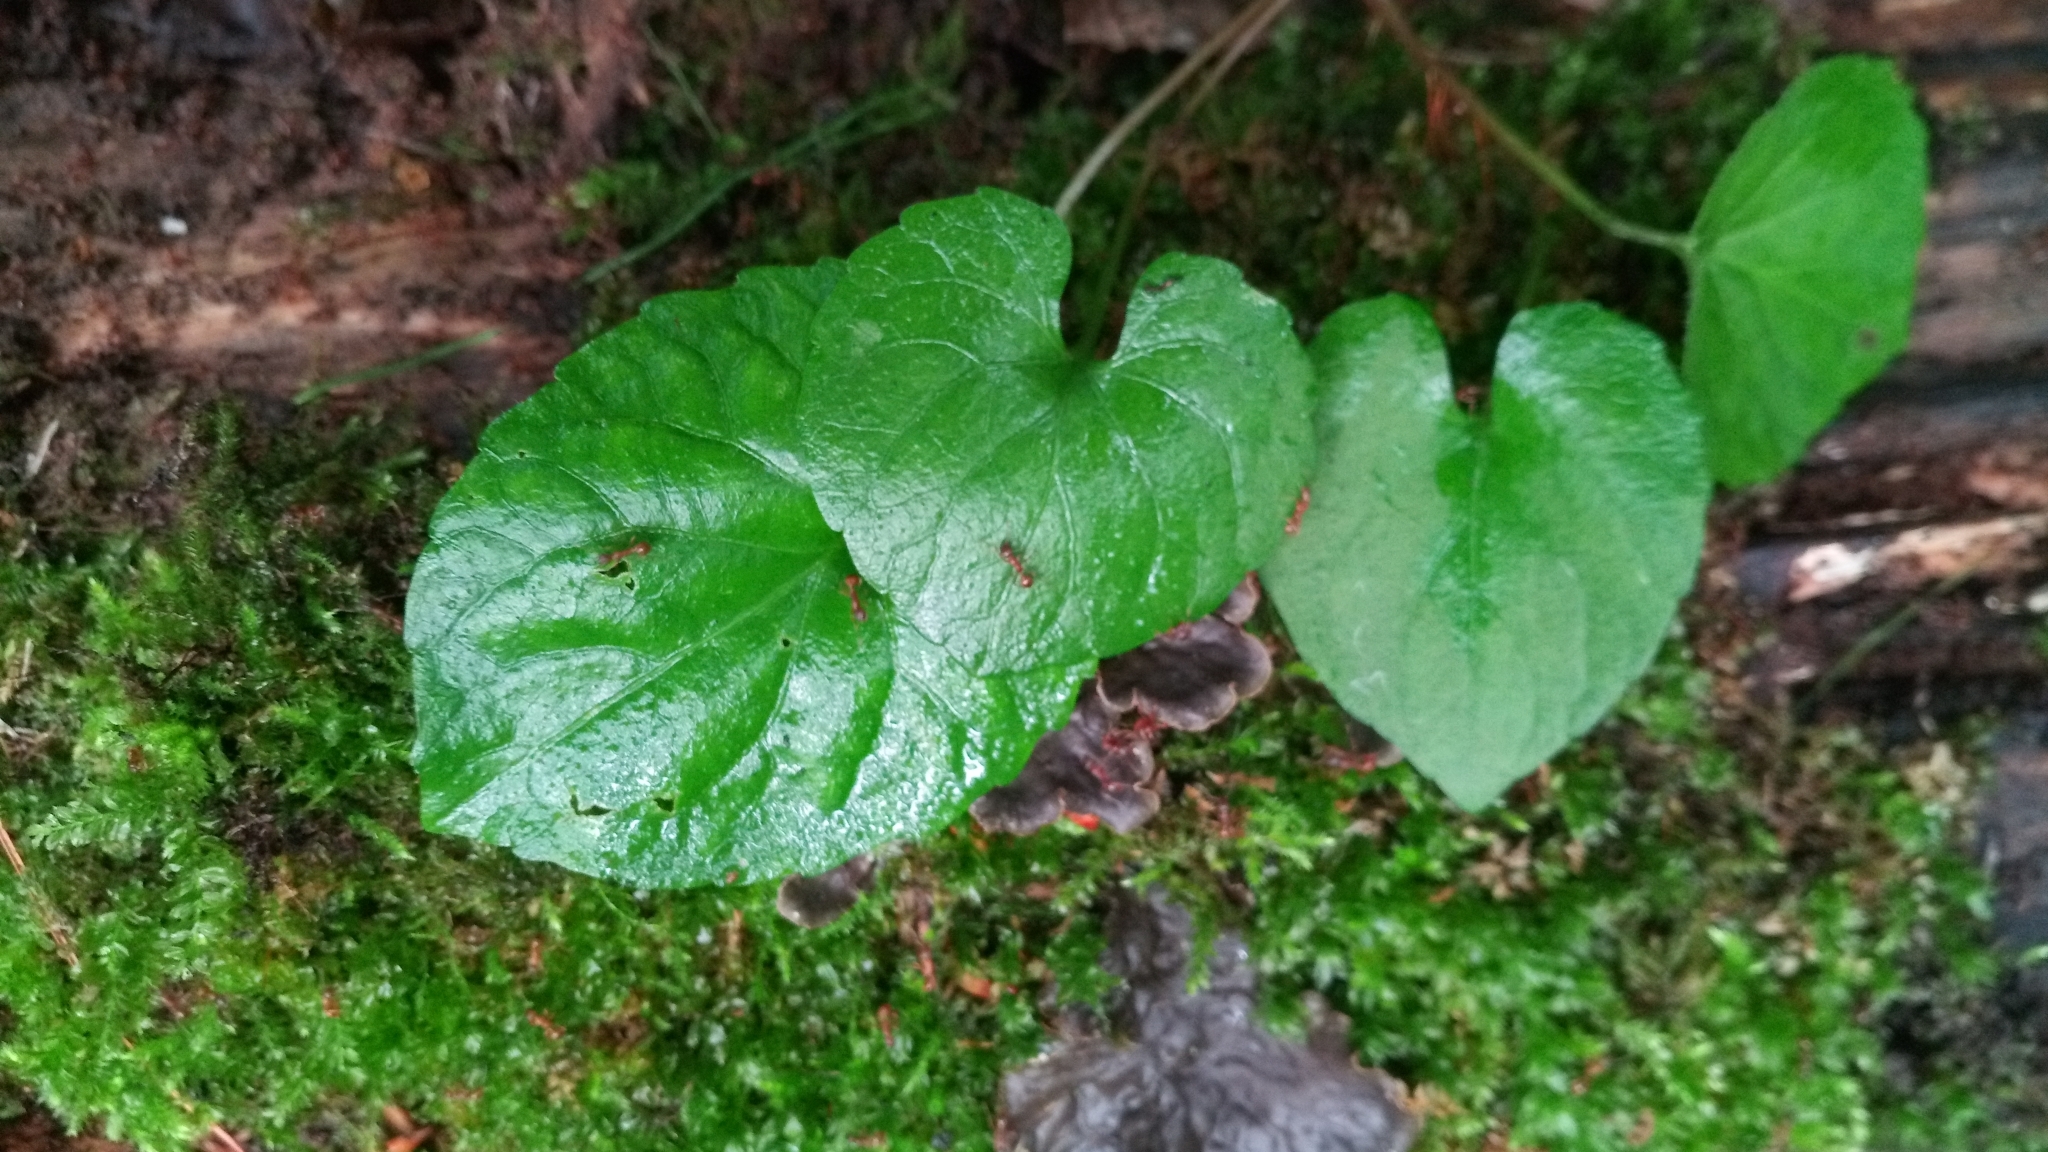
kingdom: Plantae
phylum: Tracheophyta
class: Magnoliopsida
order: Malpighiales
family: Violaceae
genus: Viola
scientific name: Viola selkirkii
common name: Selkirk's violet
